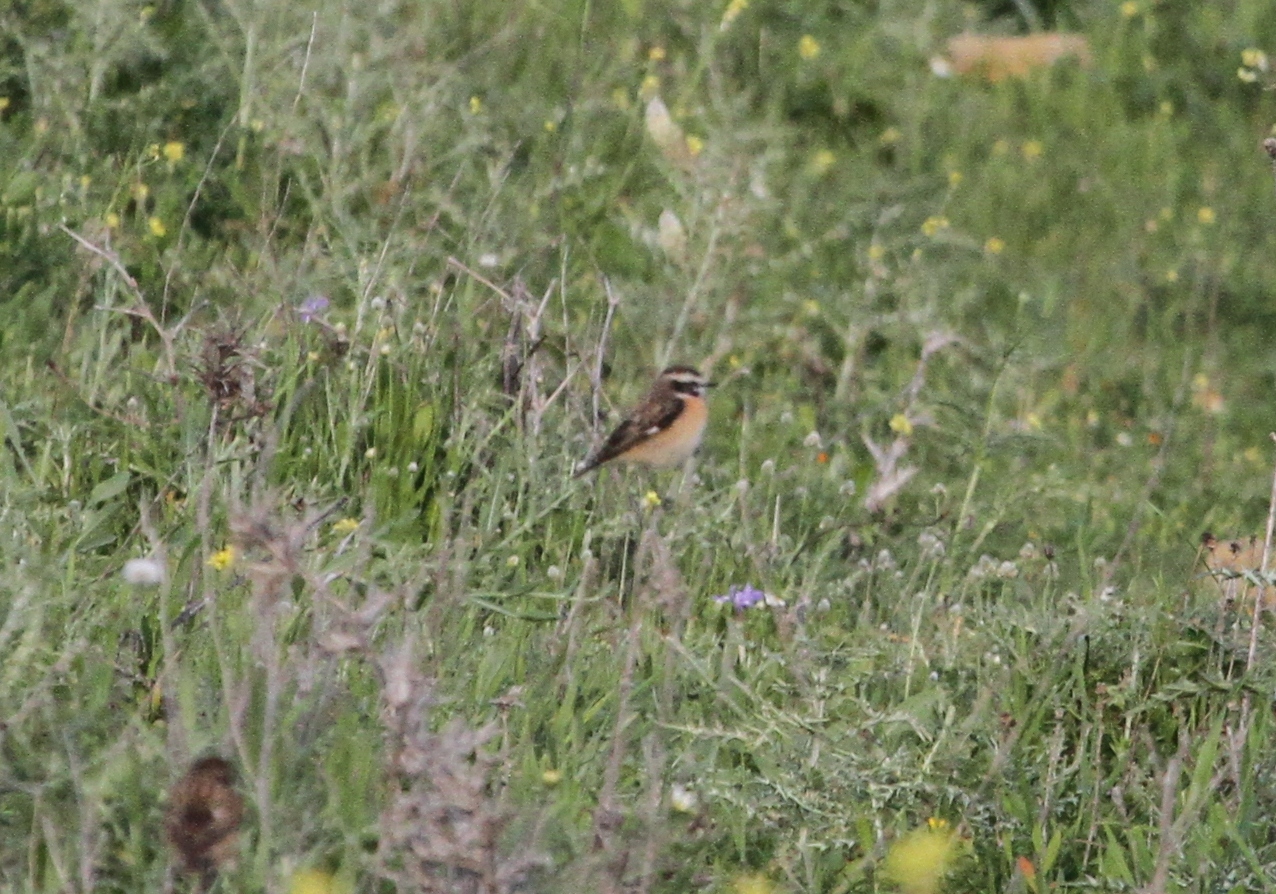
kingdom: Animalia
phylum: Chordata
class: Aves
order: Passeriformes
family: Muscicapidae
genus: Saxicola
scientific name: Saxicola rubetra
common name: Whinchat
